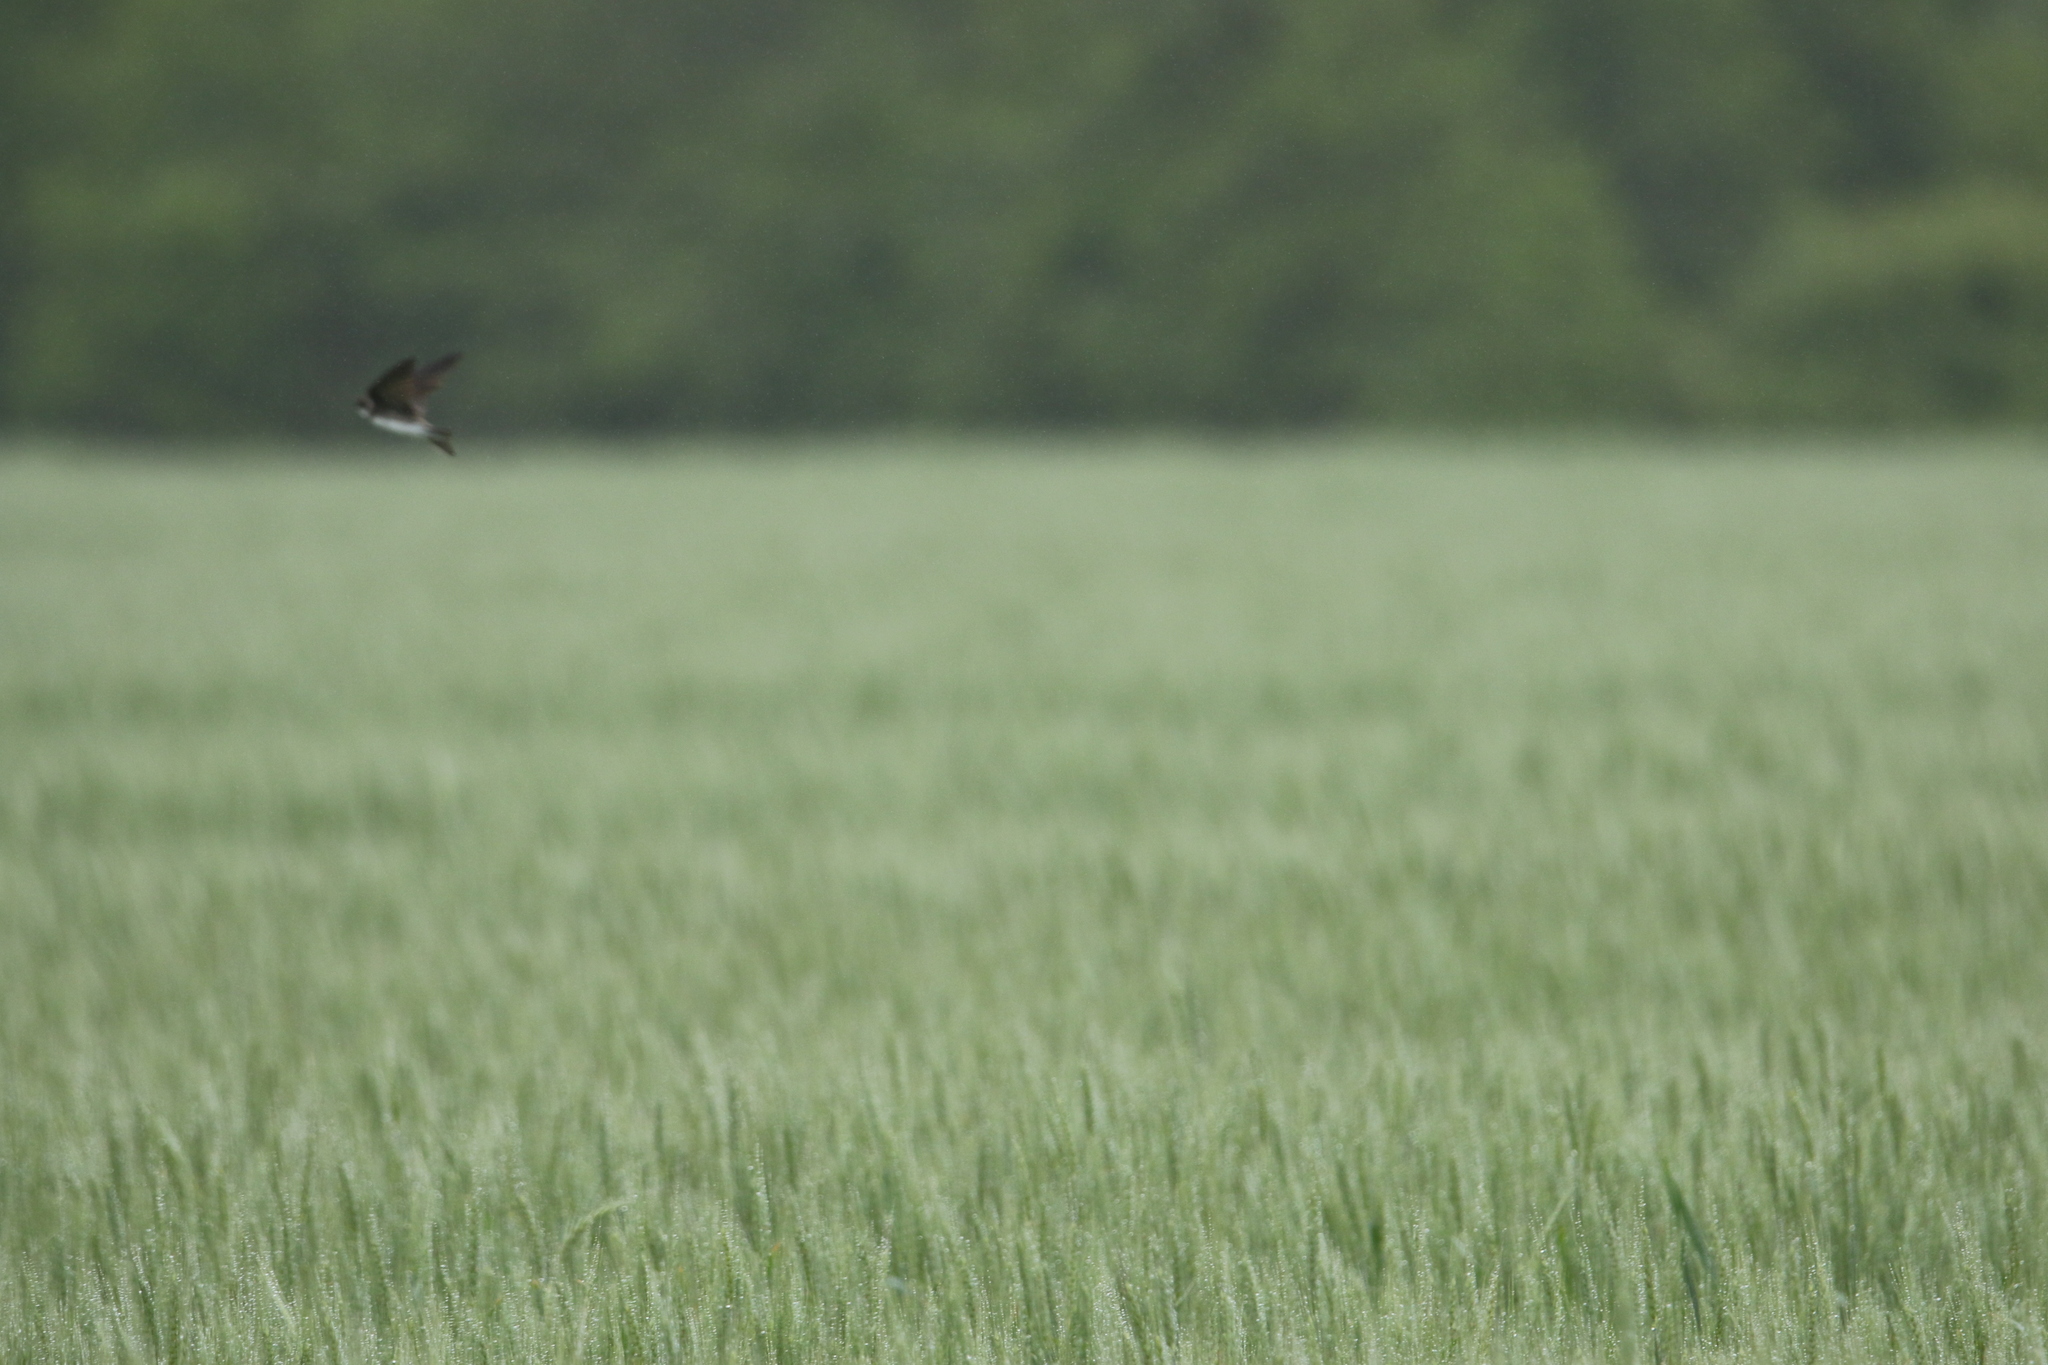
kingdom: Animalia
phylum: Chordata
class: Aves
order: Passeriformes
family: Hirundinidae
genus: Riparia
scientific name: Riparia riparia
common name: Sand martin
